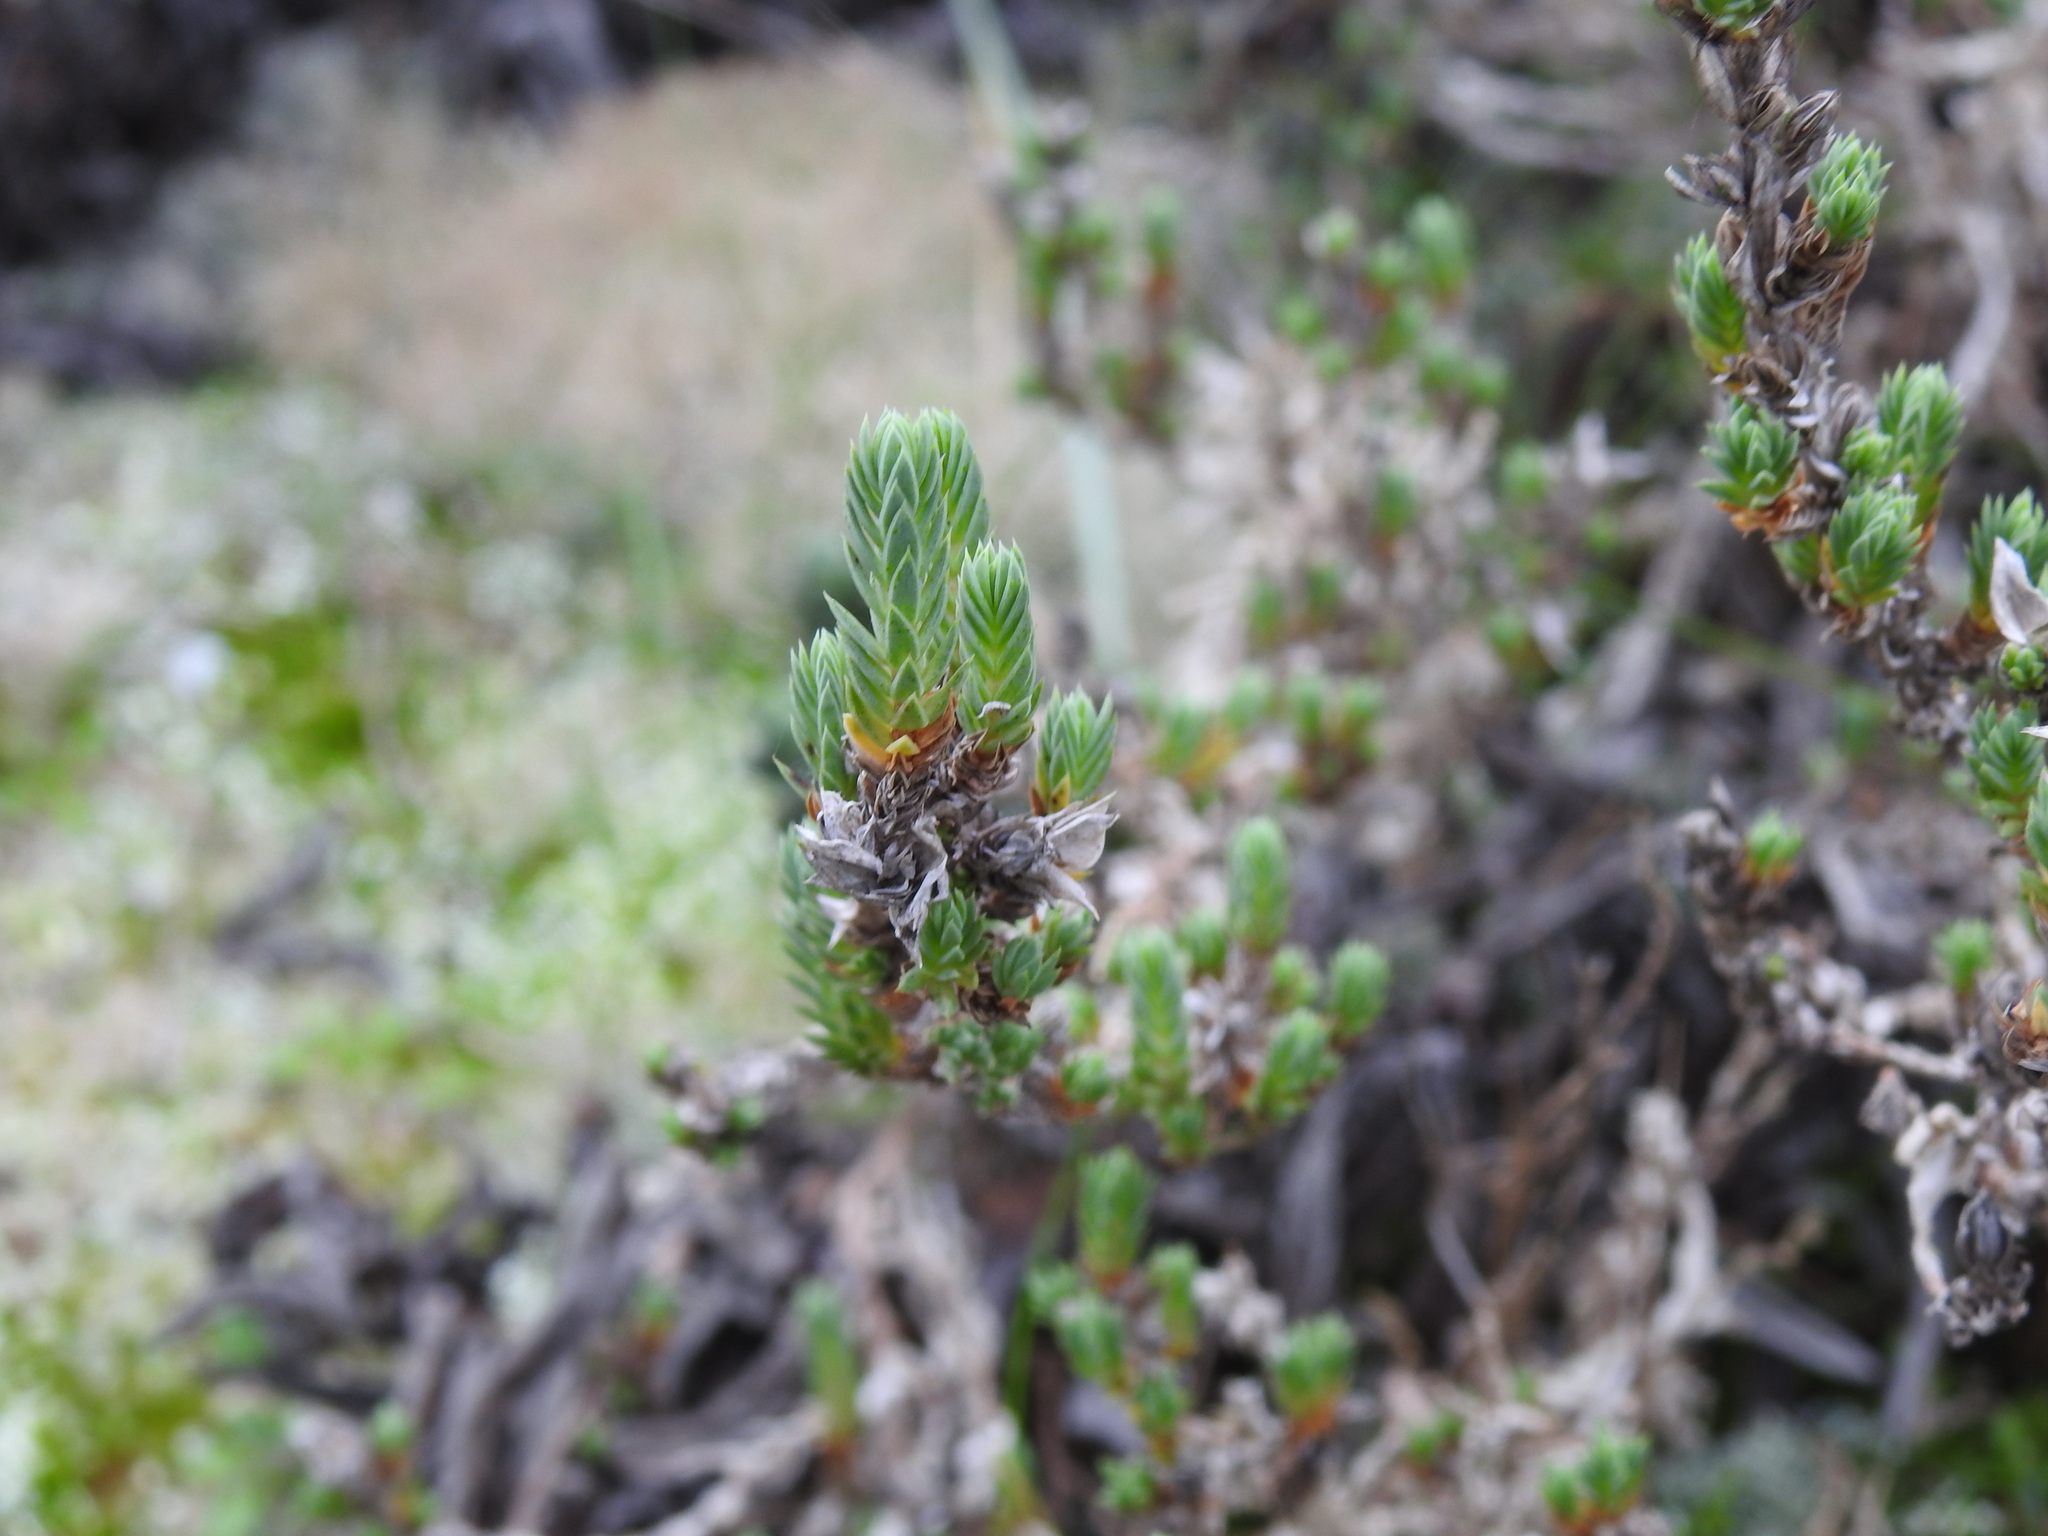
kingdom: Plantae
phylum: Tracheophyta
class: Magnoliopsida
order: Gentianales
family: Rubiaceae
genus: Crucianella
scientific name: Crucianella maritima
